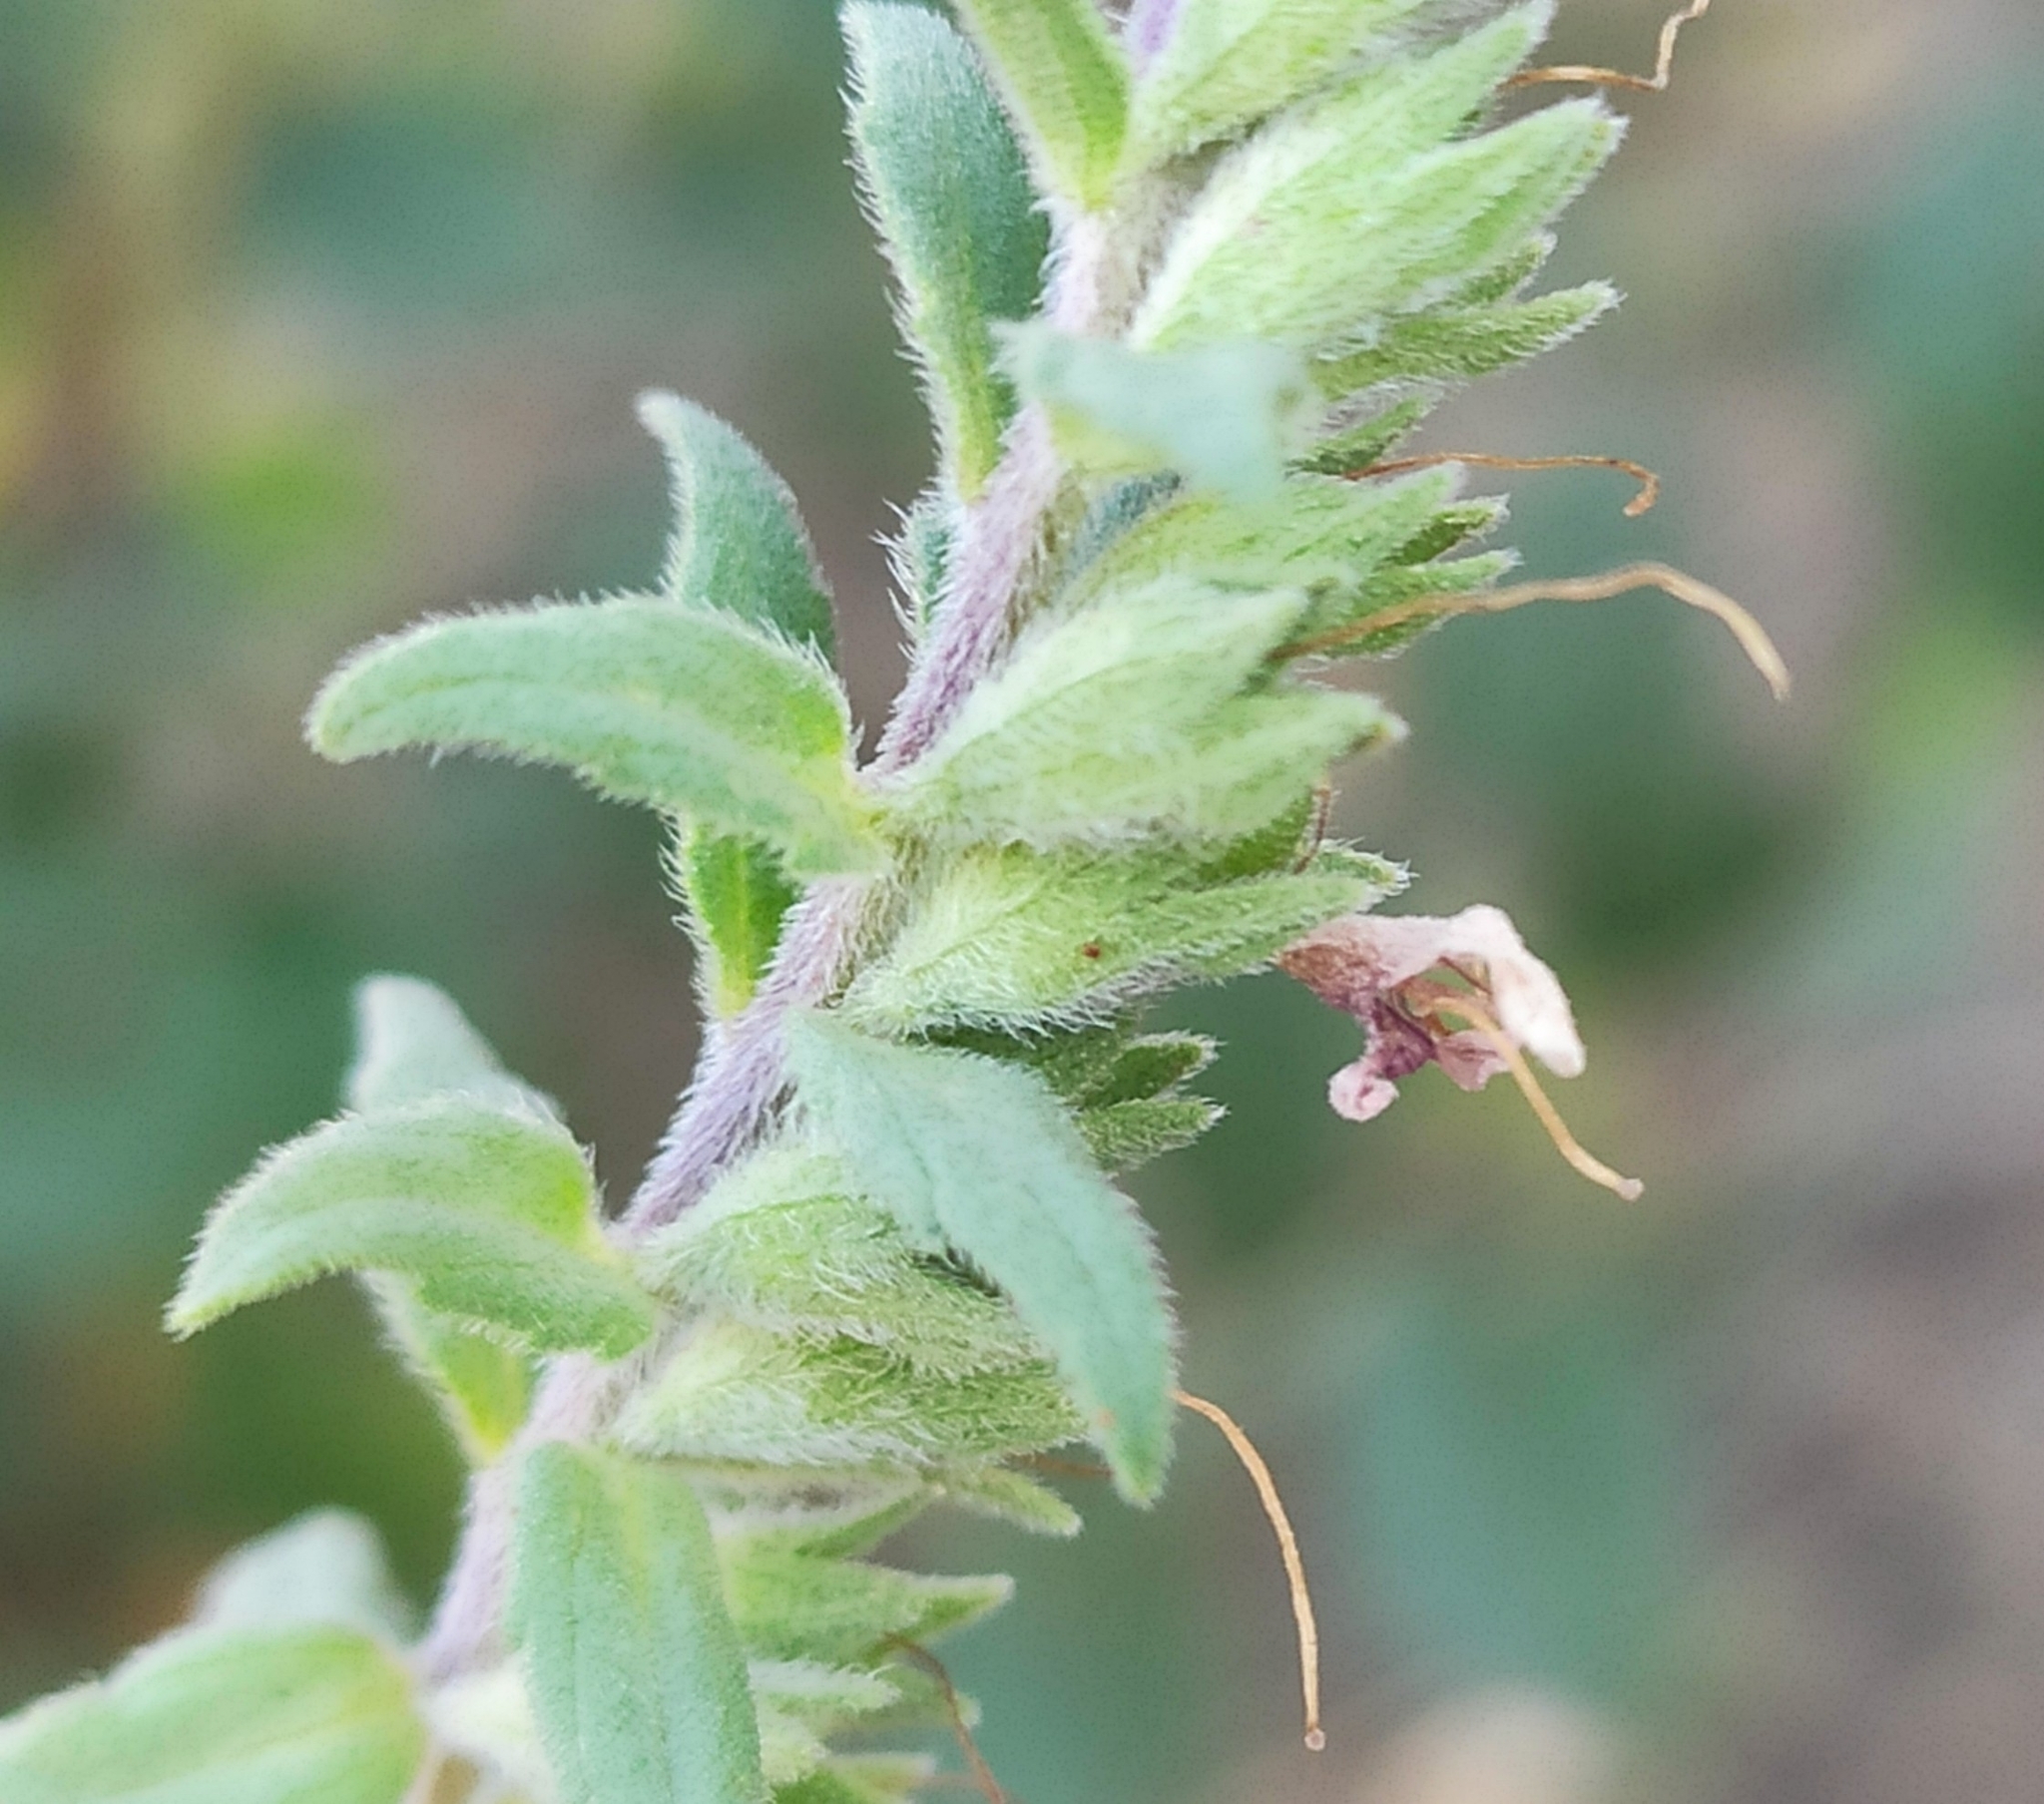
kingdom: Plantae
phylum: Tracheophyta
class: Magnoliopsida
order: Lamiales
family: Orobanchaceae
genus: Odontites
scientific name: Odontites vulgaris
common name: Broomrape
